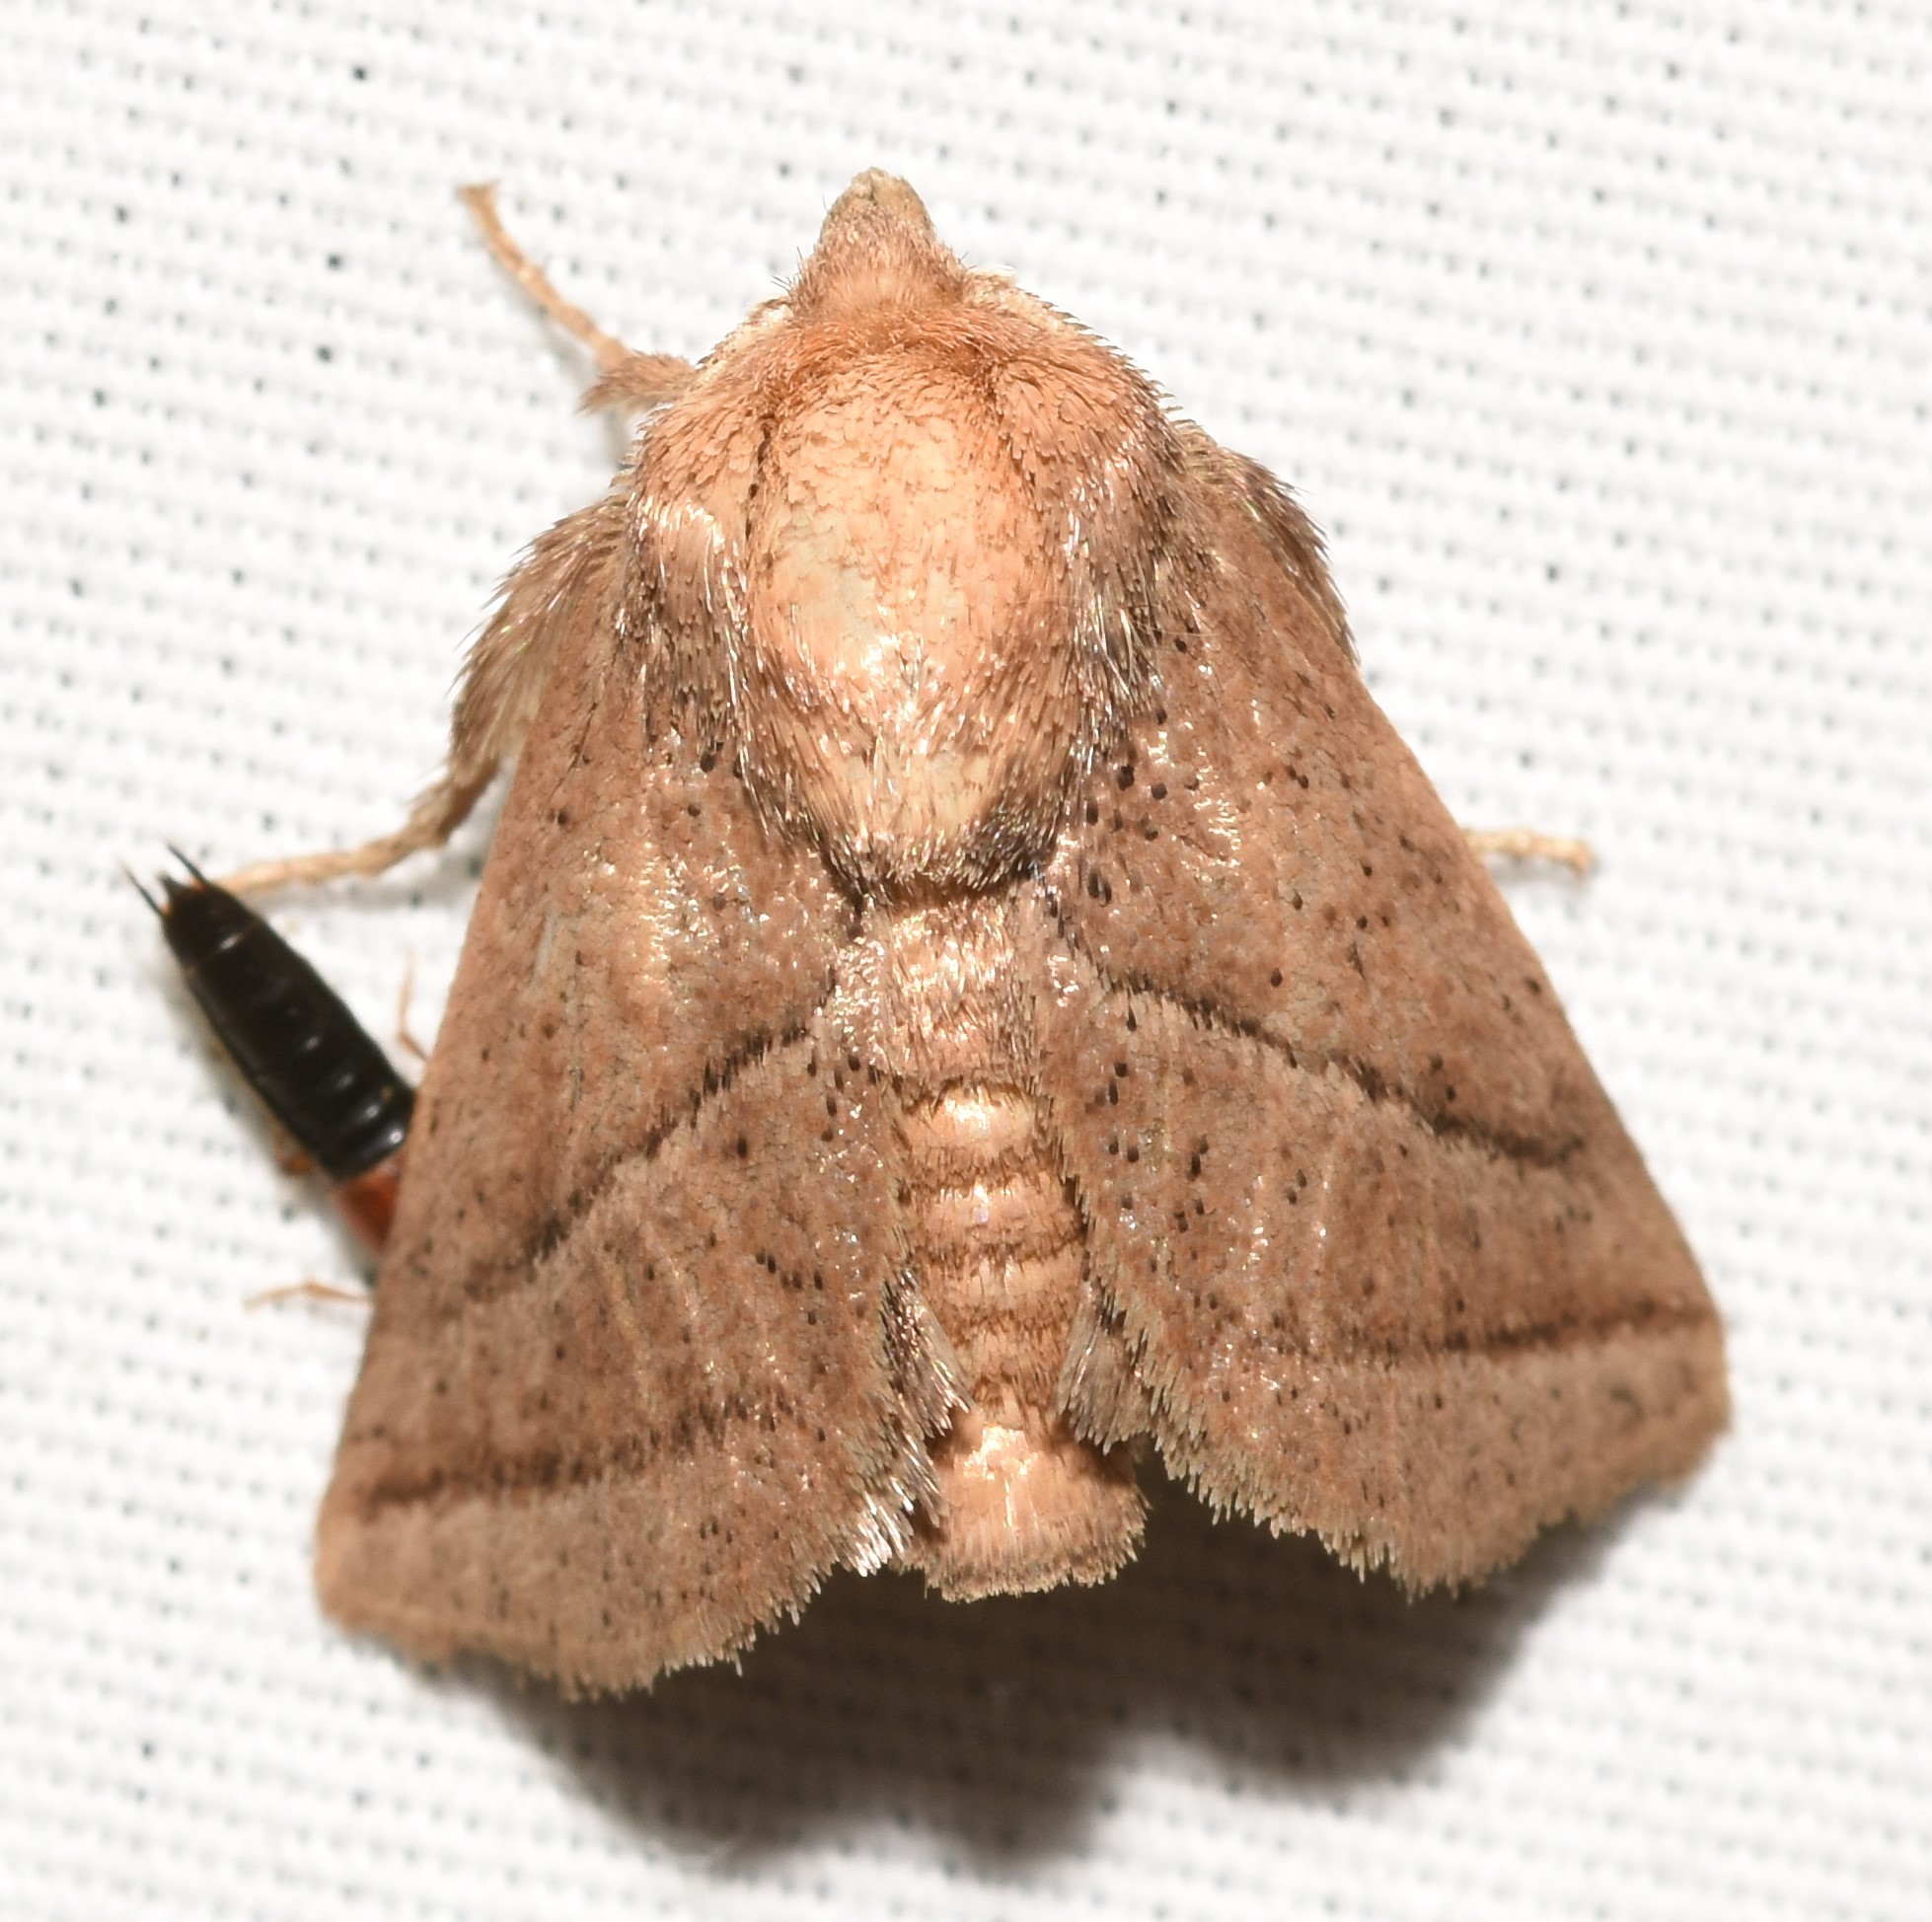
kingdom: Animalia
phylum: Arthropoda
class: Insecta
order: Lepidoptera
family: Limacodidae
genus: Natada
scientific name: Natada nasoni
